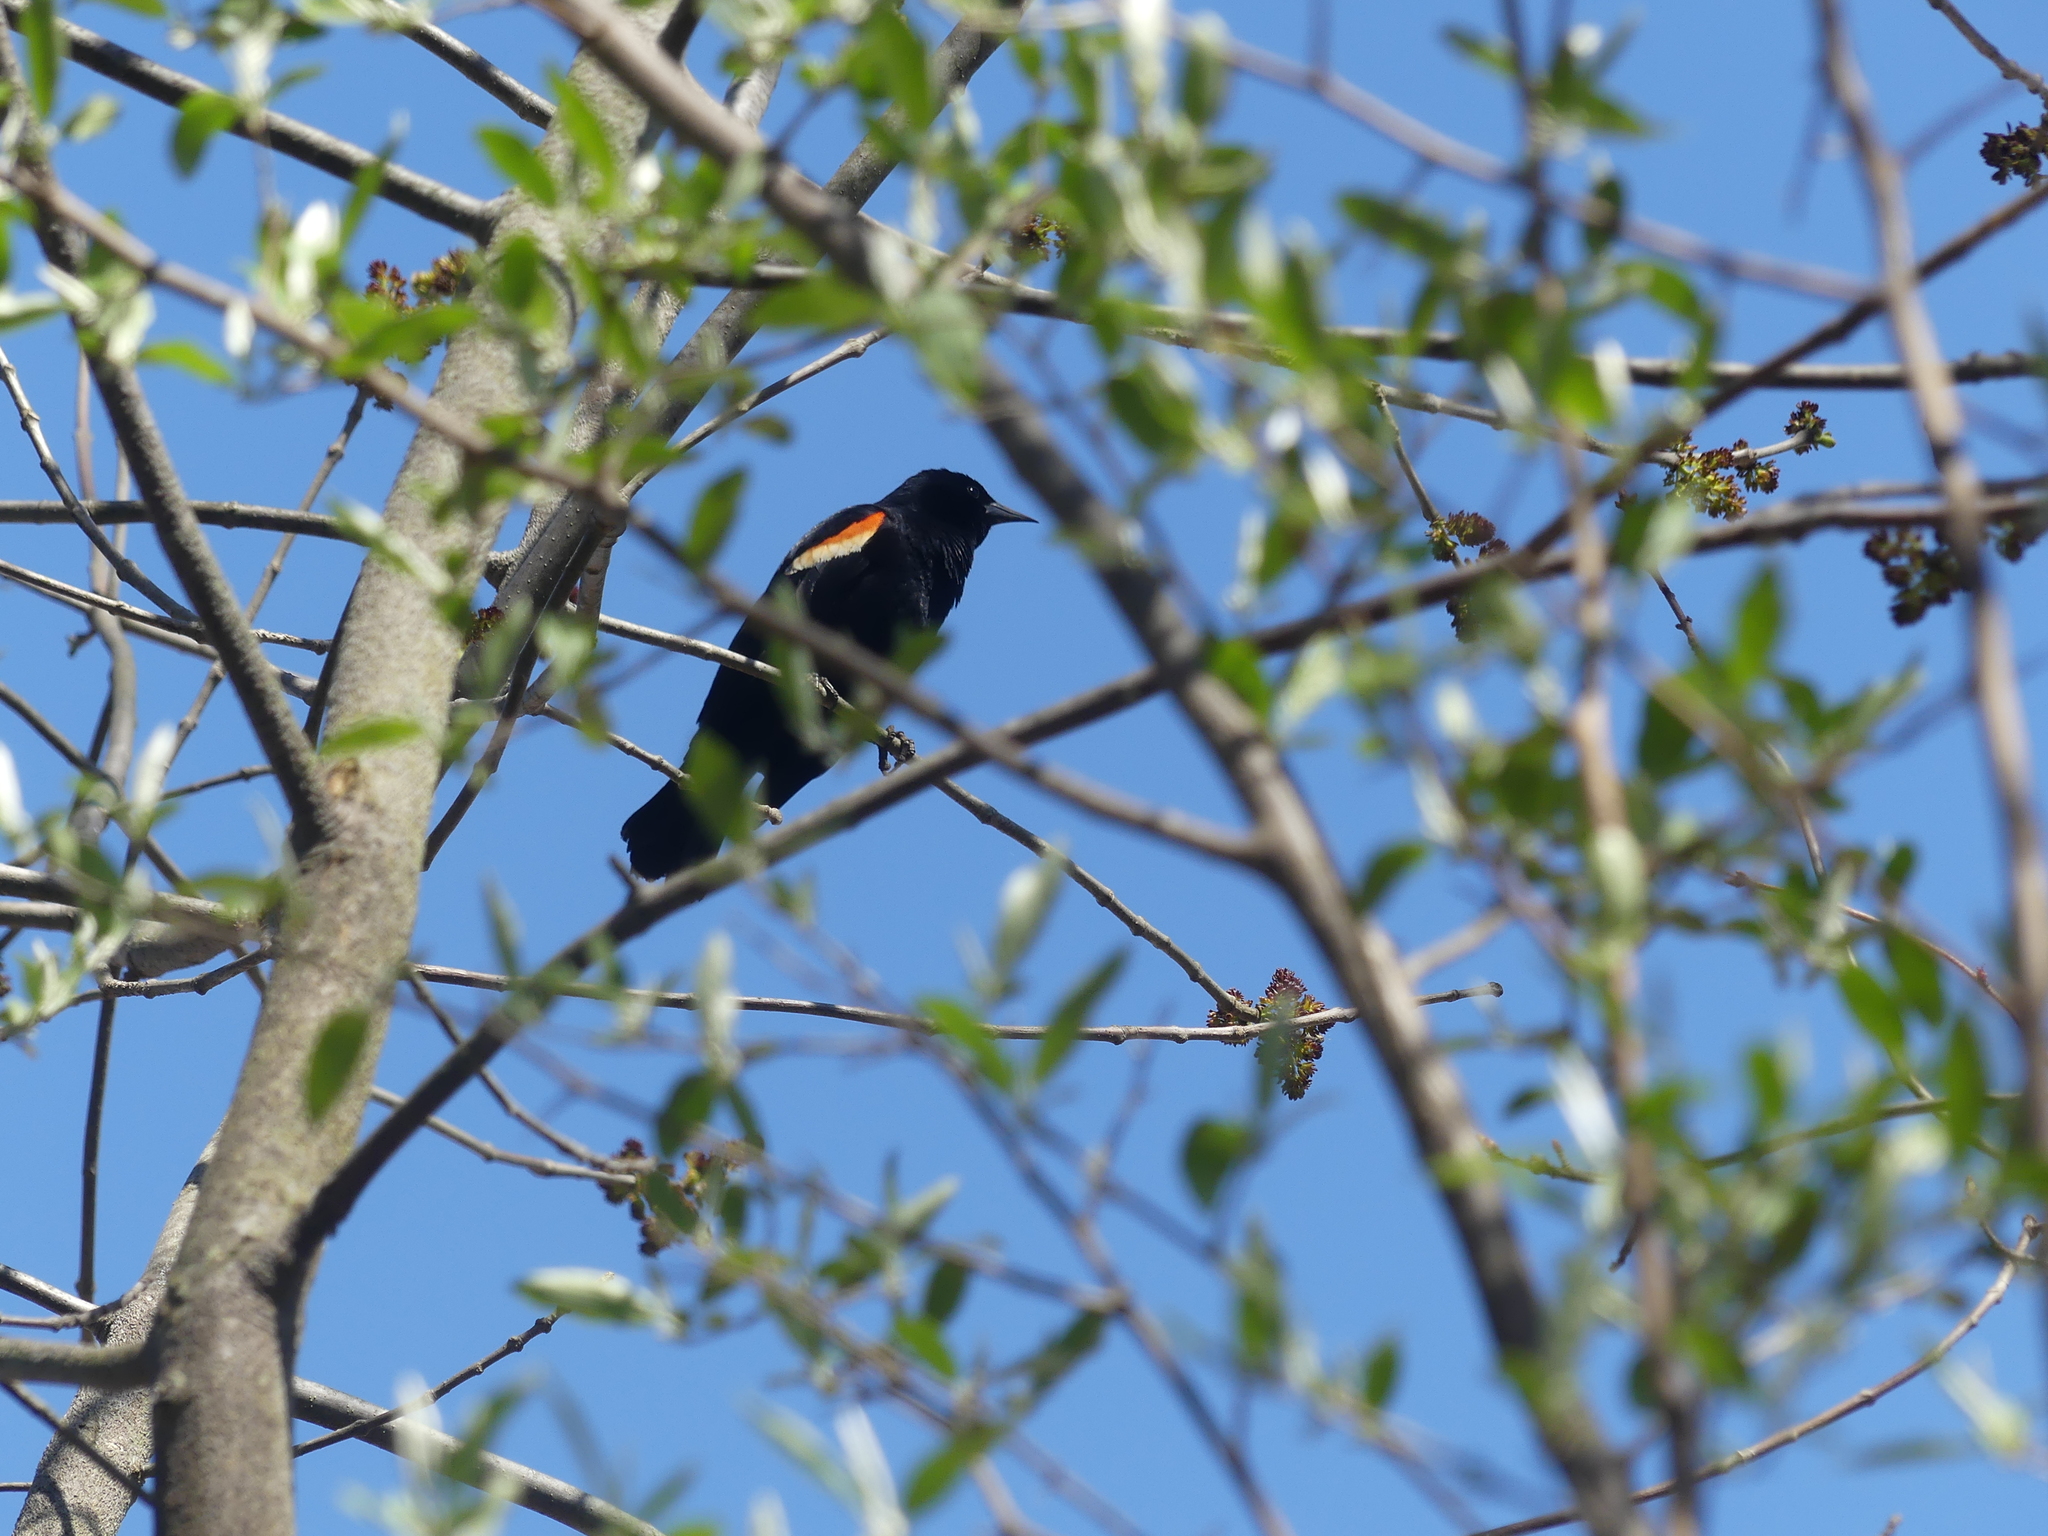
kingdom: Animalia
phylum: Chordata
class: Aves
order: Passeriformes
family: Icteridae
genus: Agelaius
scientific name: Agelaius phoeniceus
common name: Red-winged blackbird
